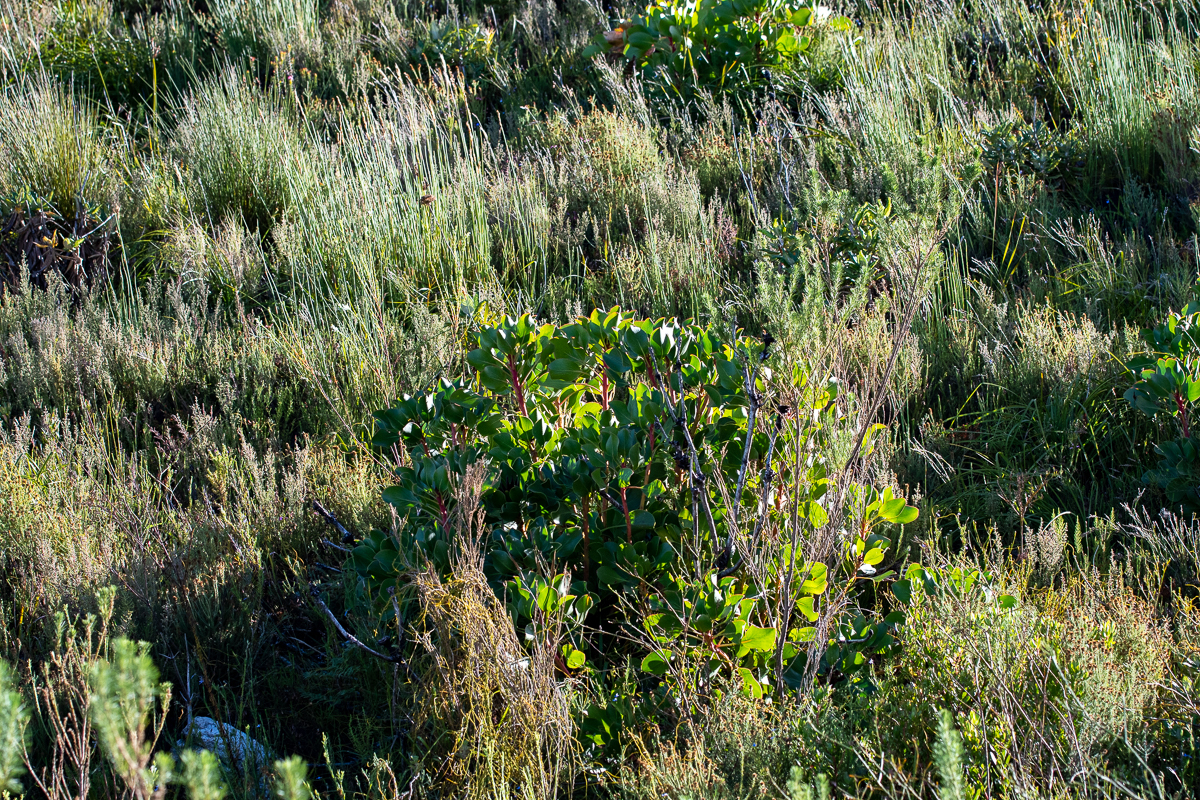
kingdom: Plantae
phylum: Tracheophyta
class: Magnoliopsida
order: Proteales
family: Proteaceae
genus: Protea
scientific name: Protea cynaroides
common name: King protea
